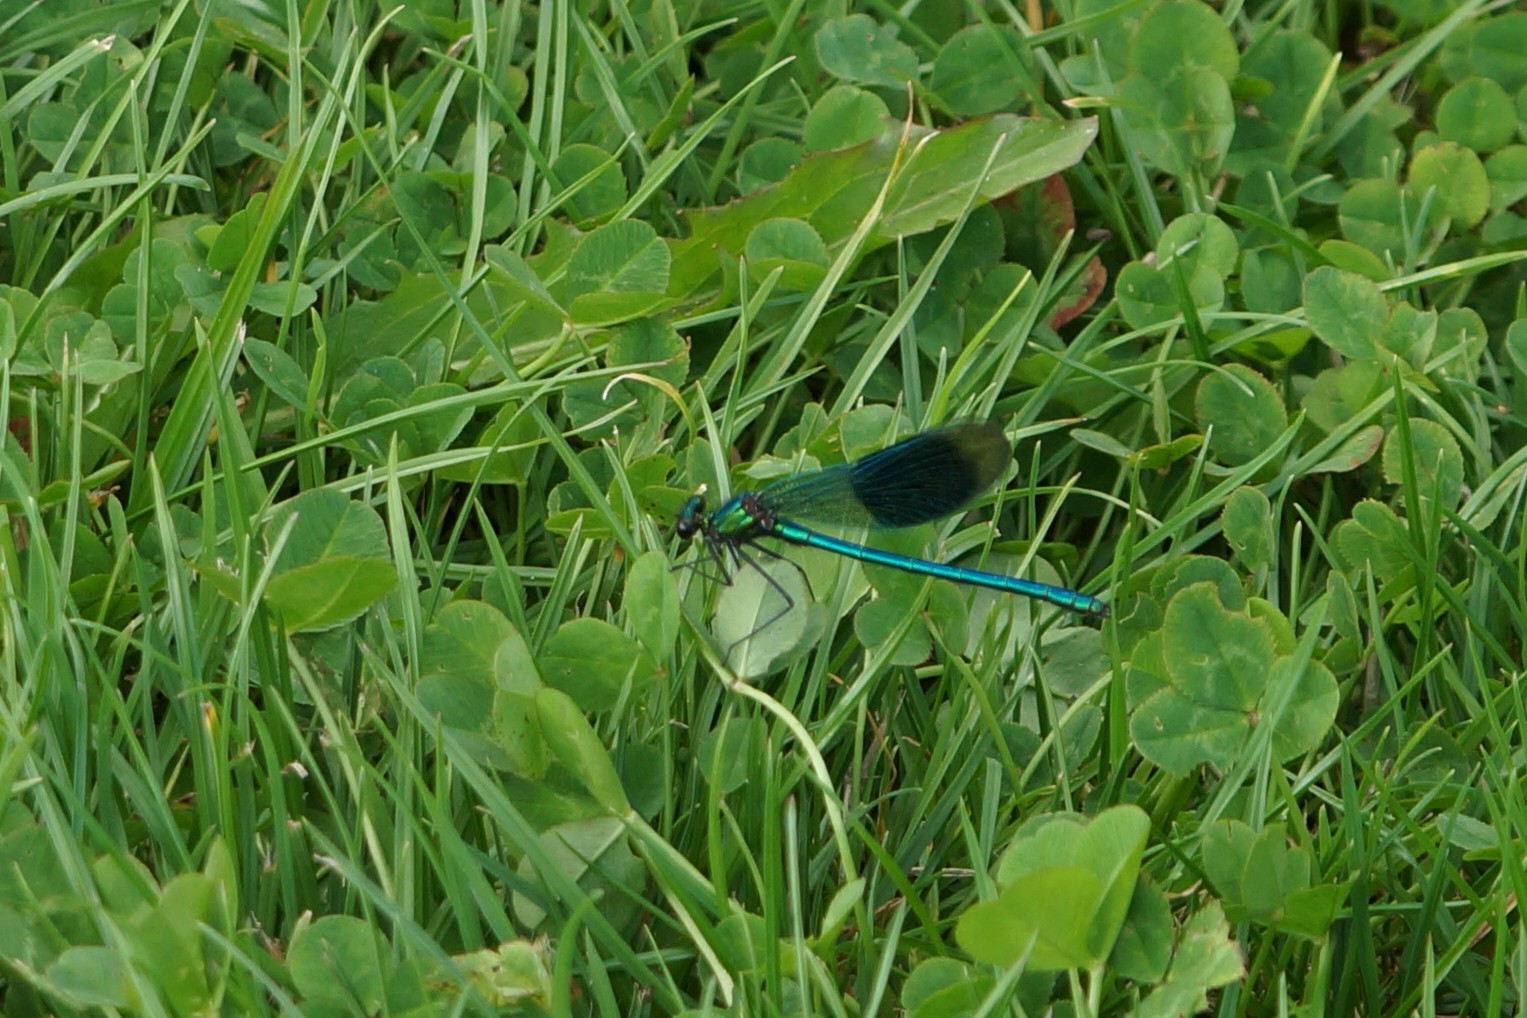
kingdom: Animalia
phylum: Arthropoda
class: Insecta
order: Odonata
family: Calopterygidae
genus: Calopteryx
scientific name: Calopteryx splendens
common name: Banded demoiselle
